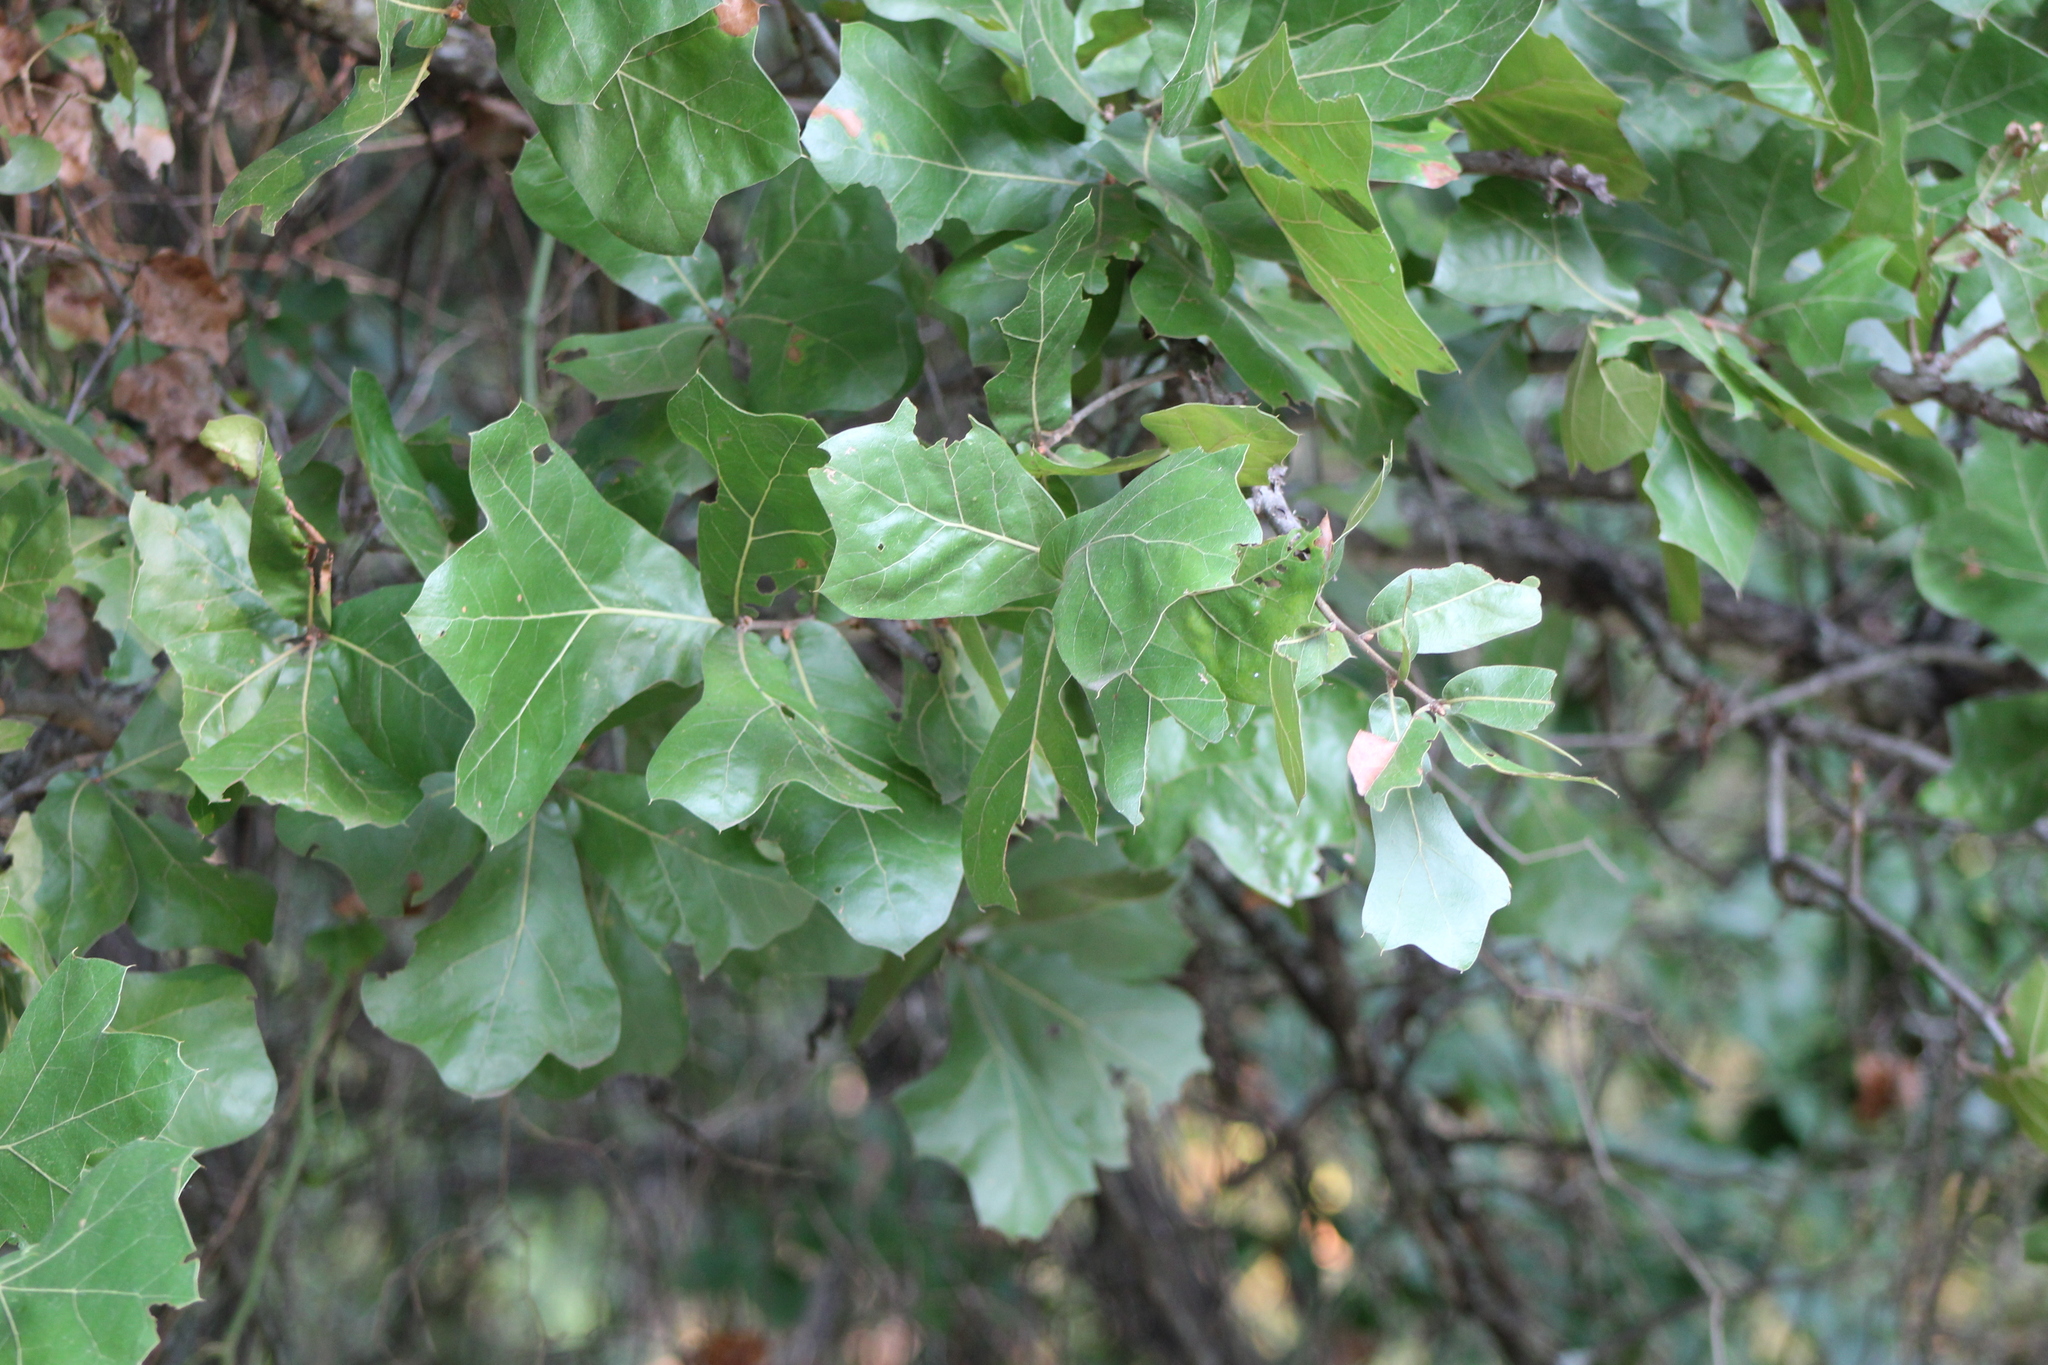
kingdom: Plantae
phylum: Tracheophyta
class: Magnoliopsida
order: Fagales
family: Fagaceae
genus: Quercus
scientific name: Quercus marilandica
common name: Blackjack oak
